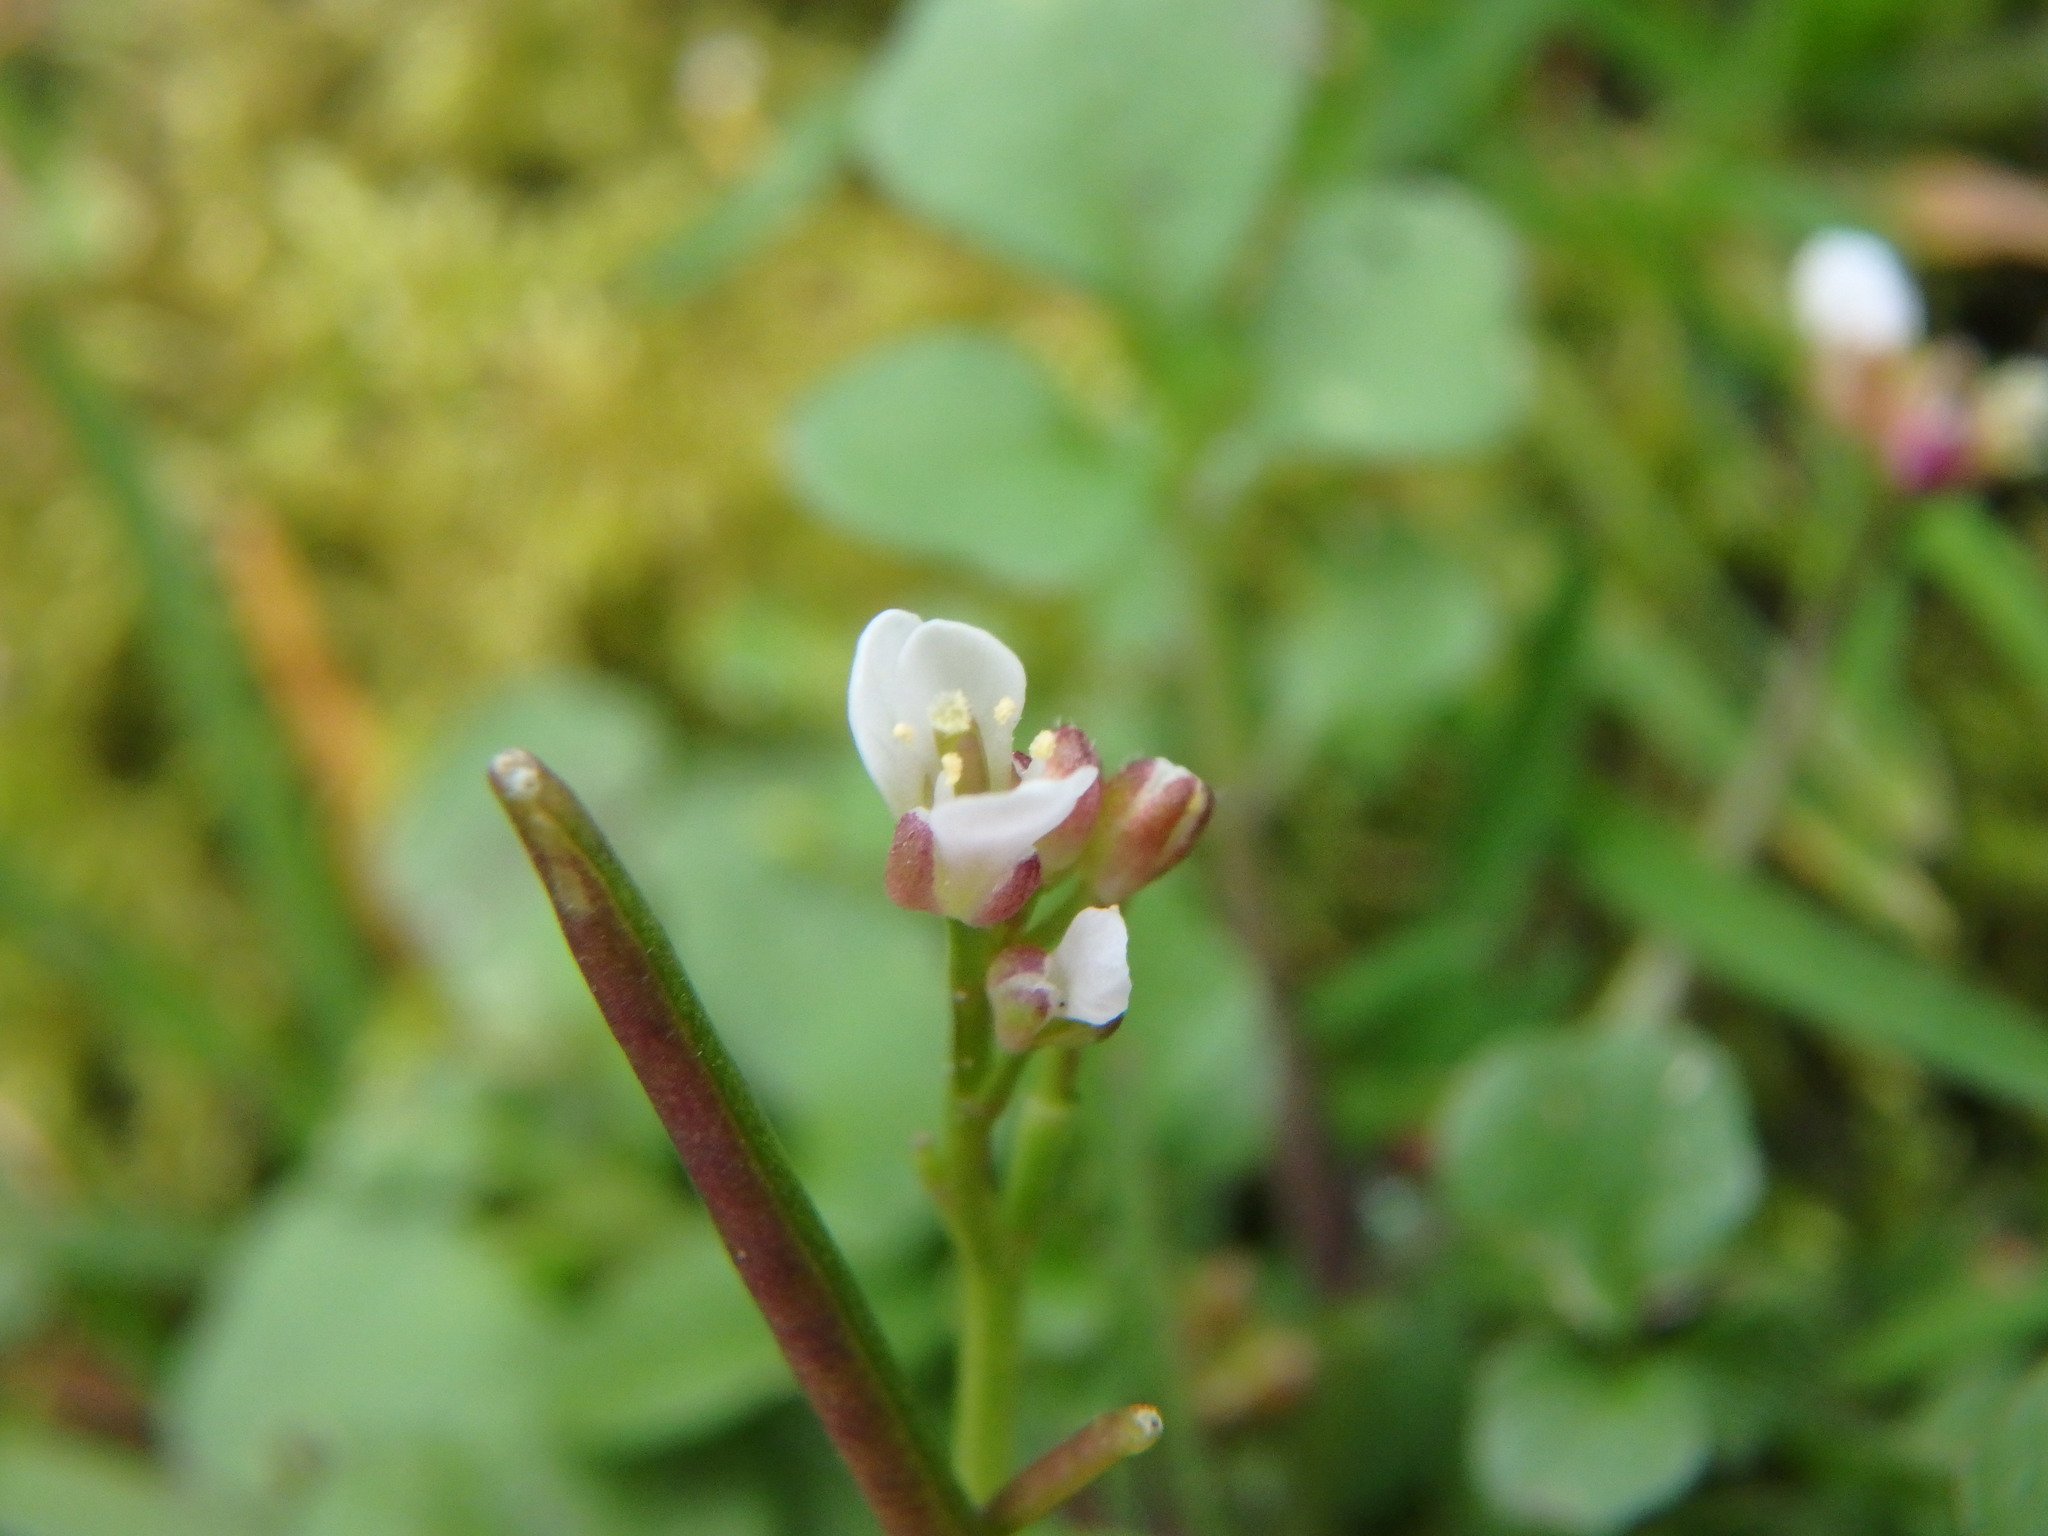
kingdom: Plantae
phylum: Tracheophyta
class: Magnoliopsida
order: Brassicales
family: Brassicaceae
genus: Cardamine
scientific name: Cardamine hirsuta
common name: Hairy bittercress
